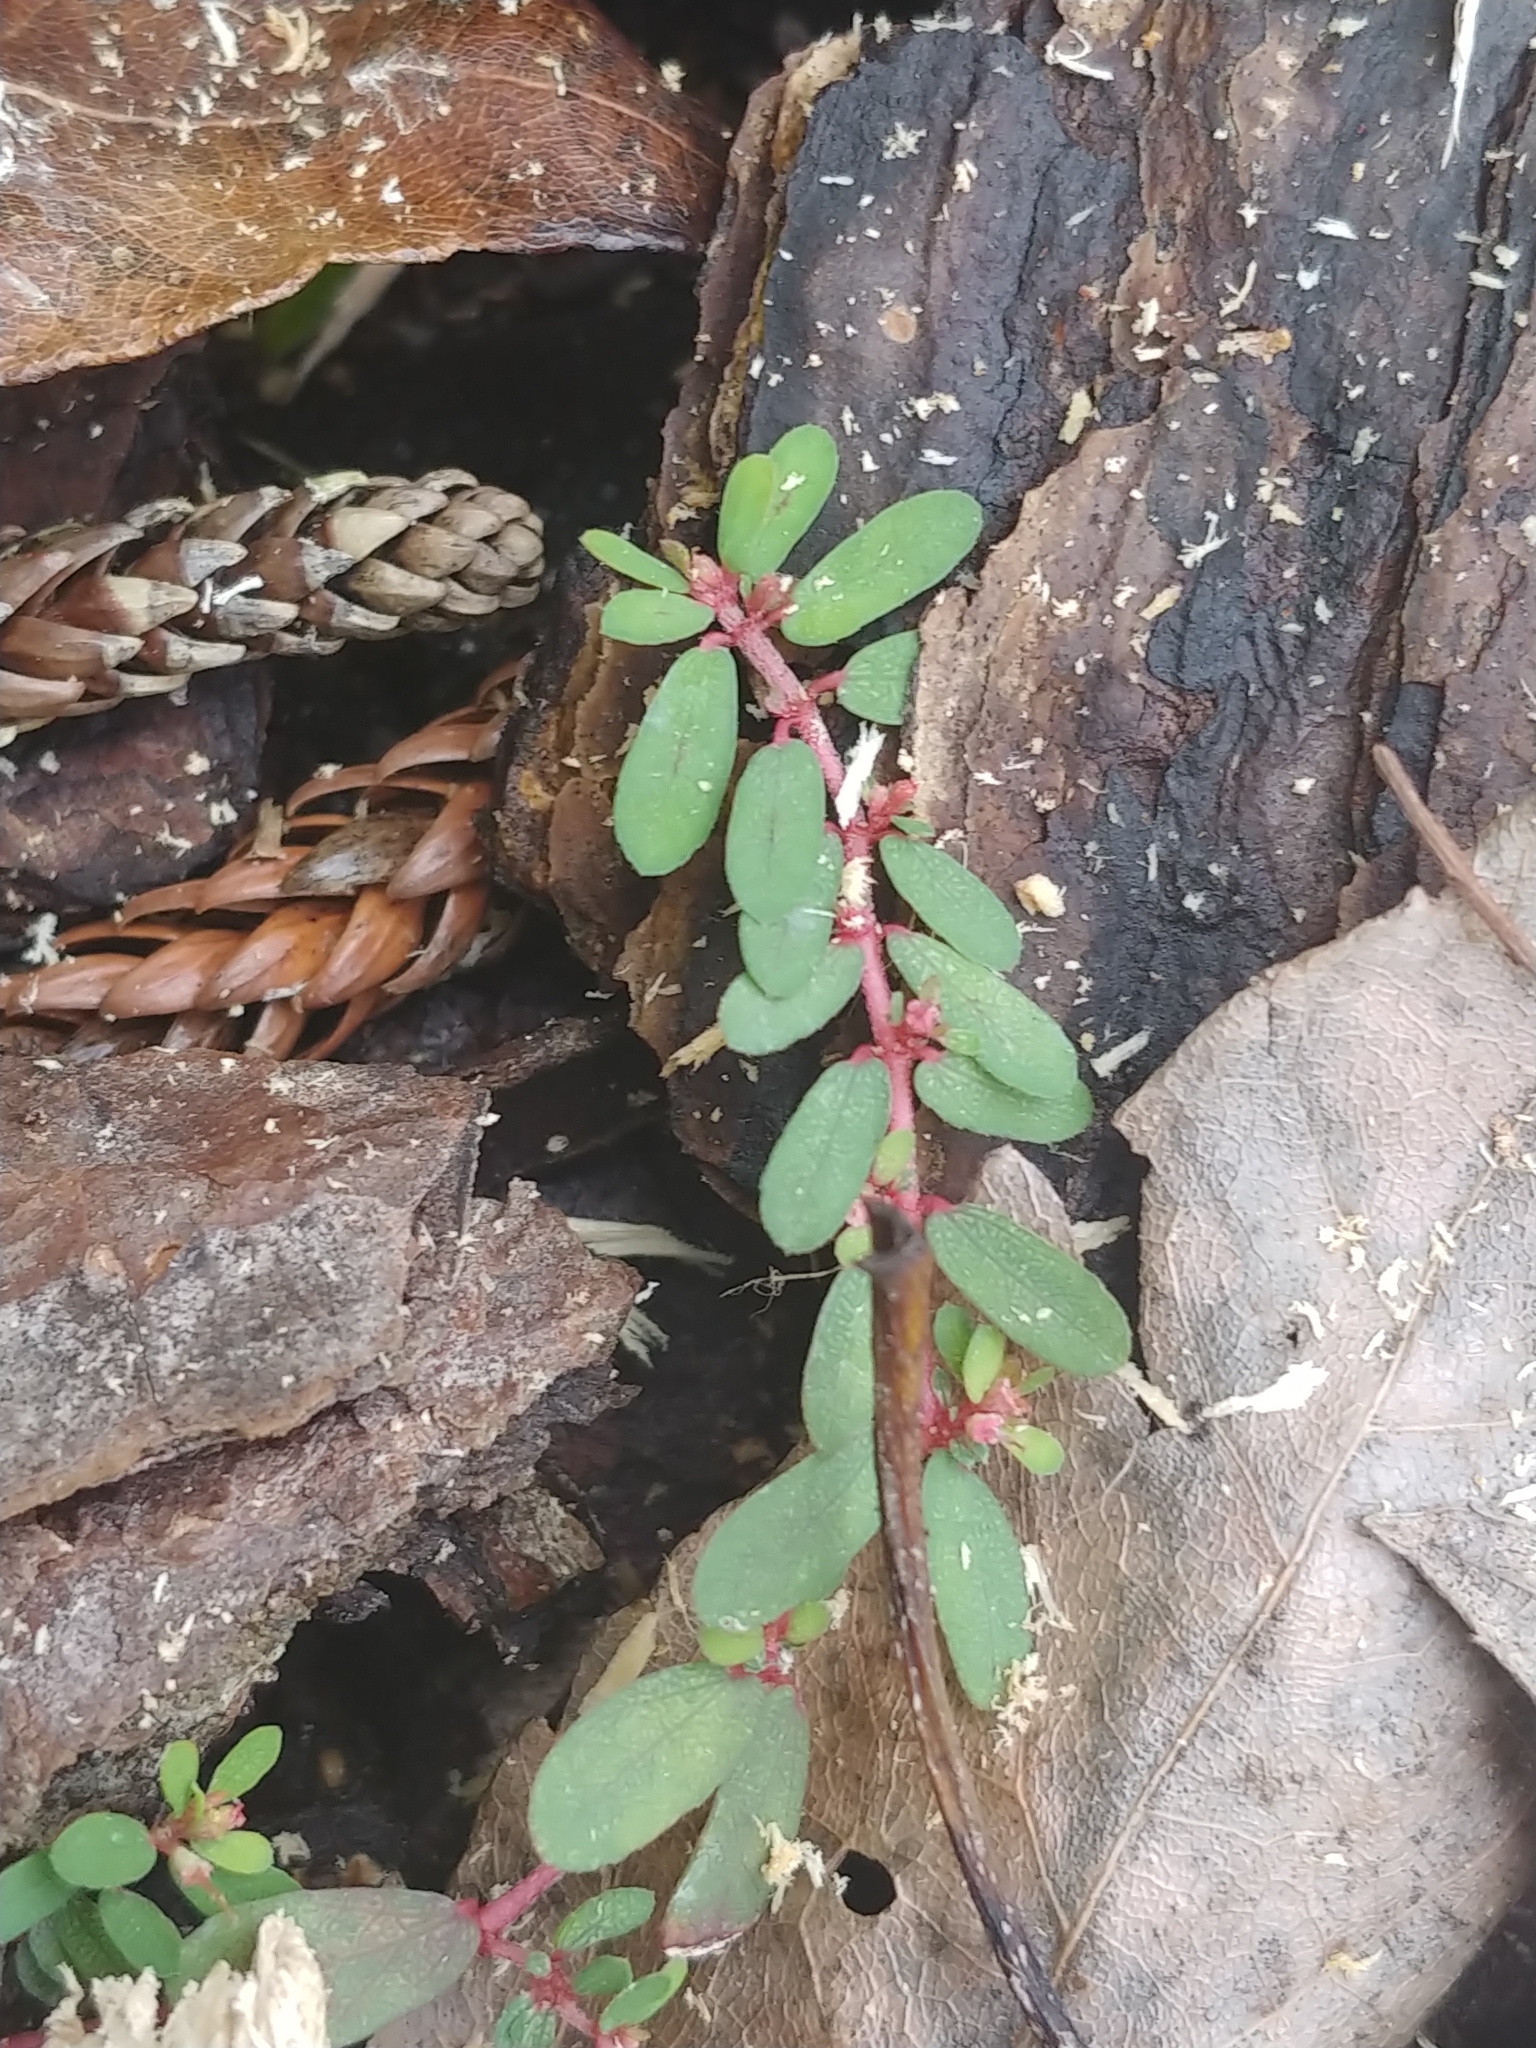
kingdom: Plantae
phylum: Tracheophyta
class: Magnoliopsida
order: Malpighiales
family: Euphorbiaceae
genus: Euphorbia
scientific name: Euphorbia maculata
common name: Spotted spurge
